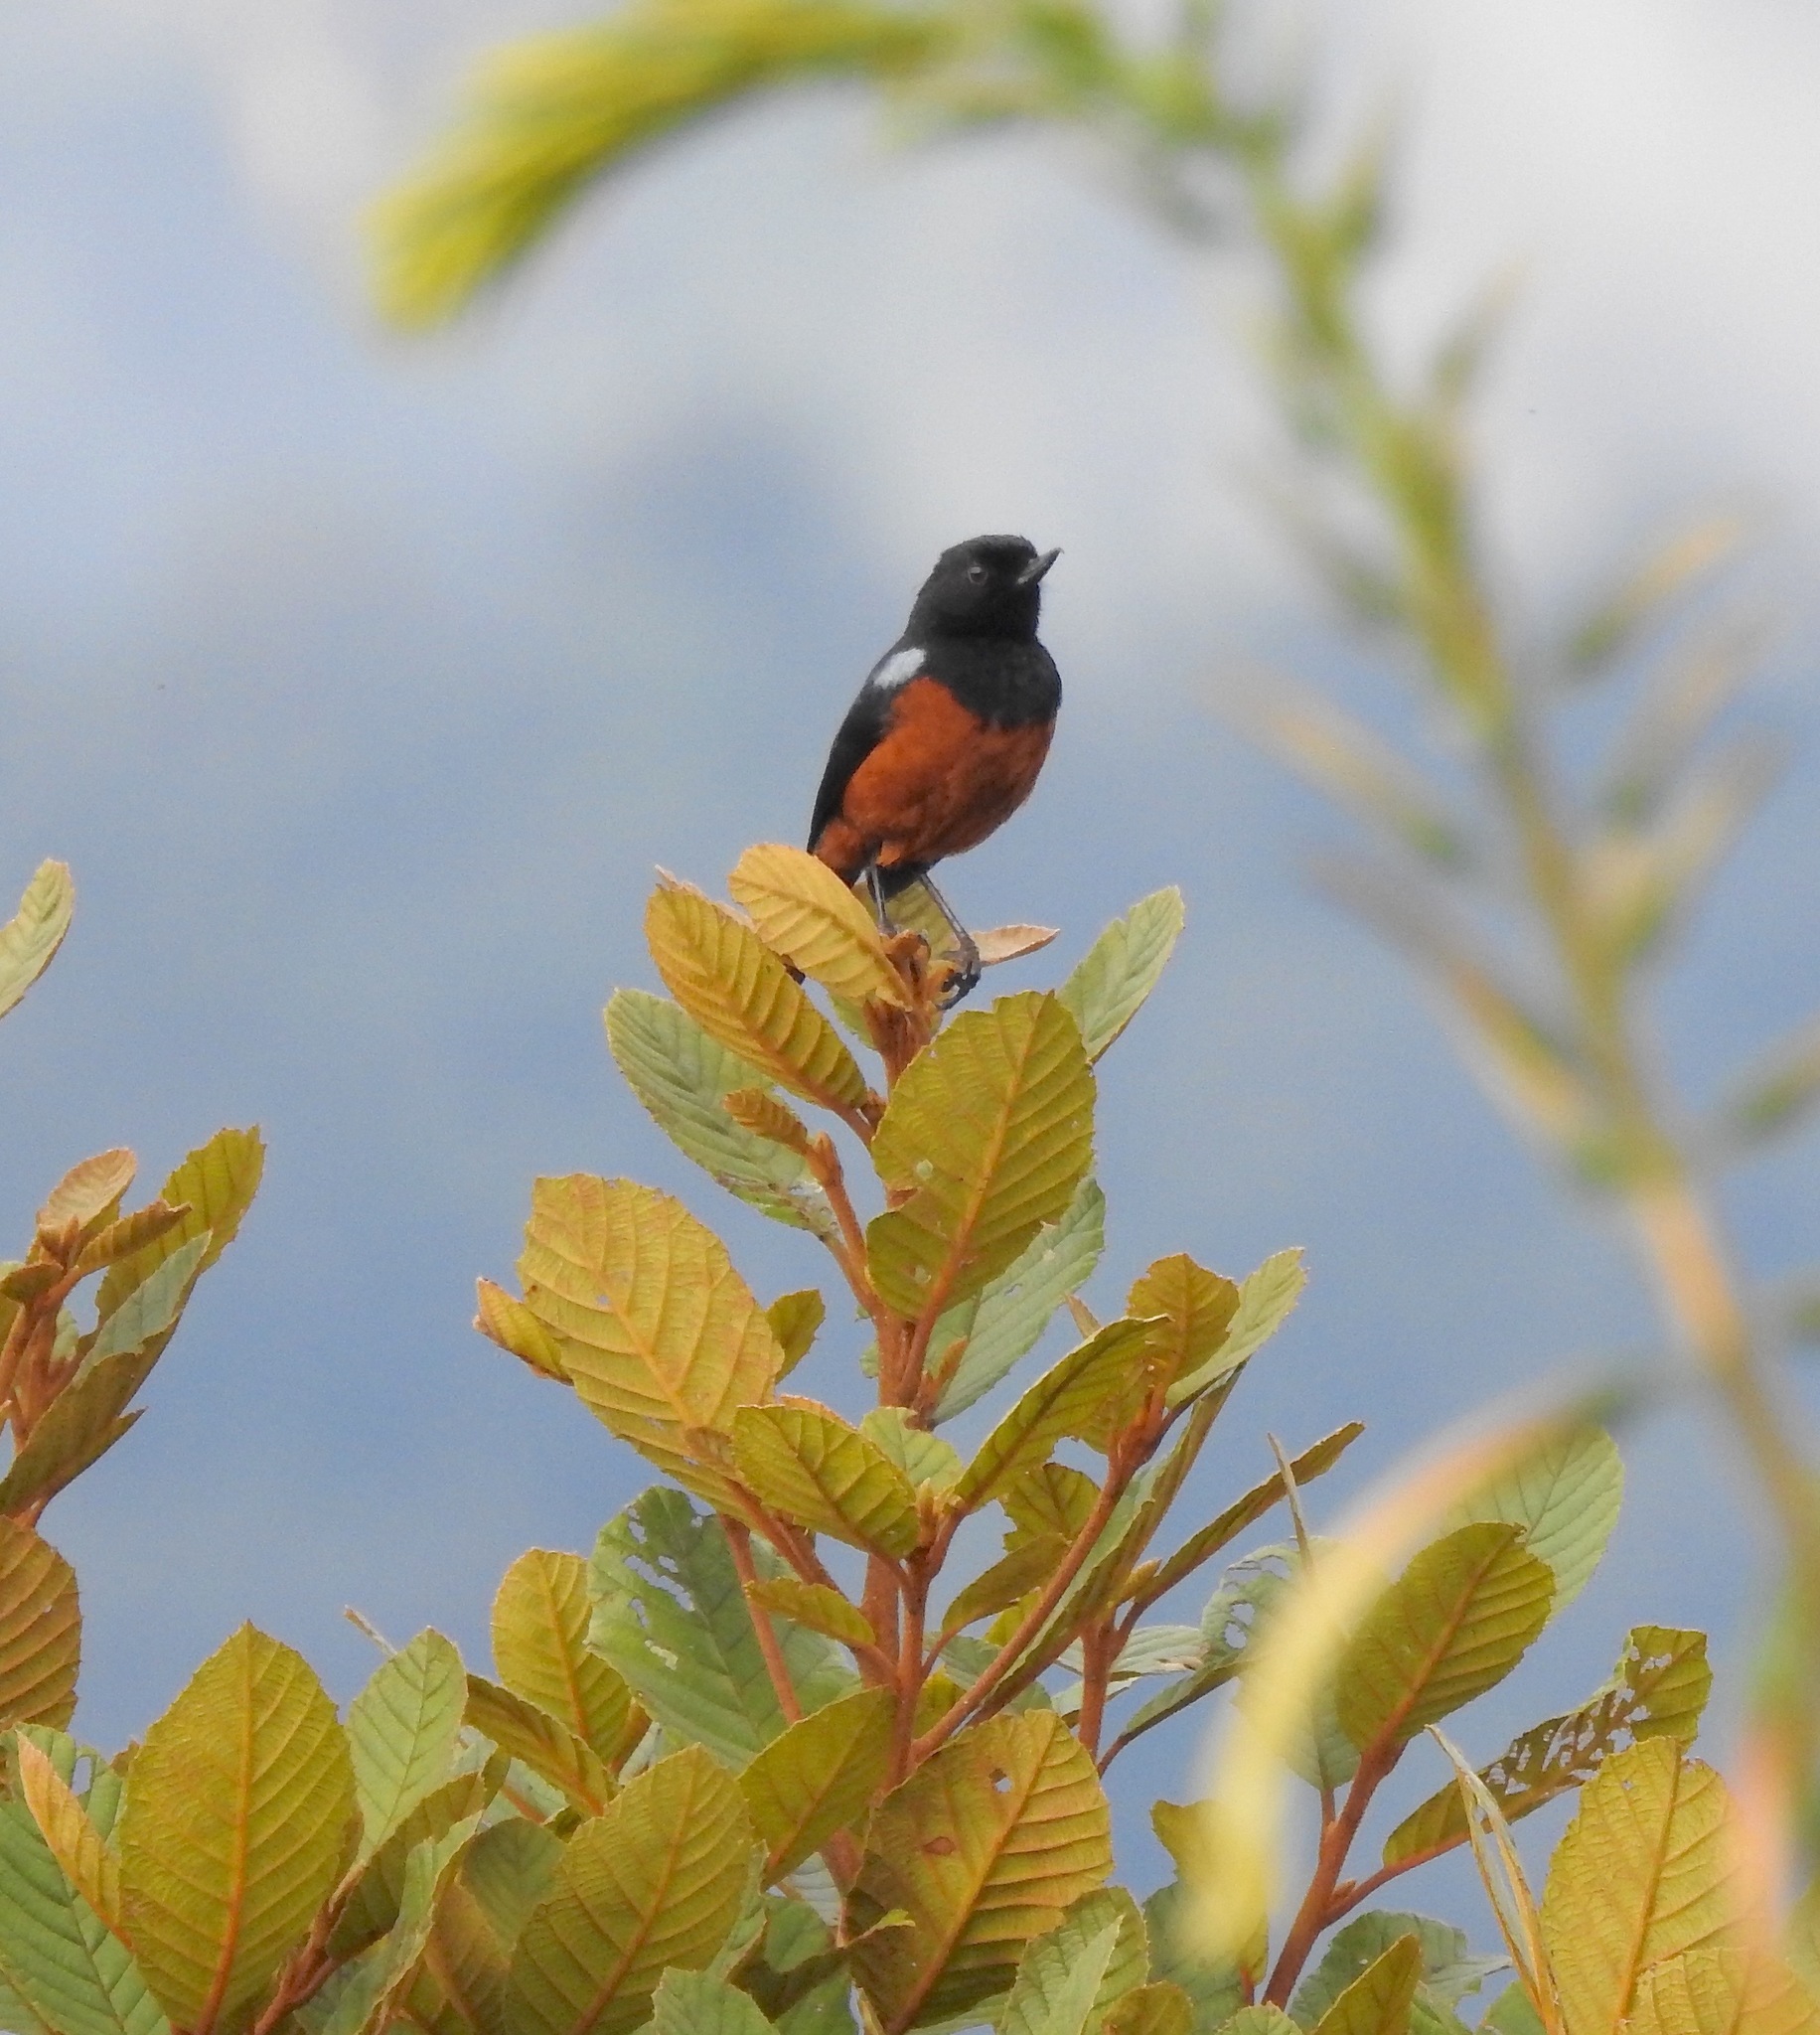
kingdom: Animalia
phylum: Chordata
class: Aves
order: Passeriformes
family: Thraupidae
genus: Diglossa
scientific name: Diglossa gloriosissima
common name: Chestnut-bellied flowerpiercer
